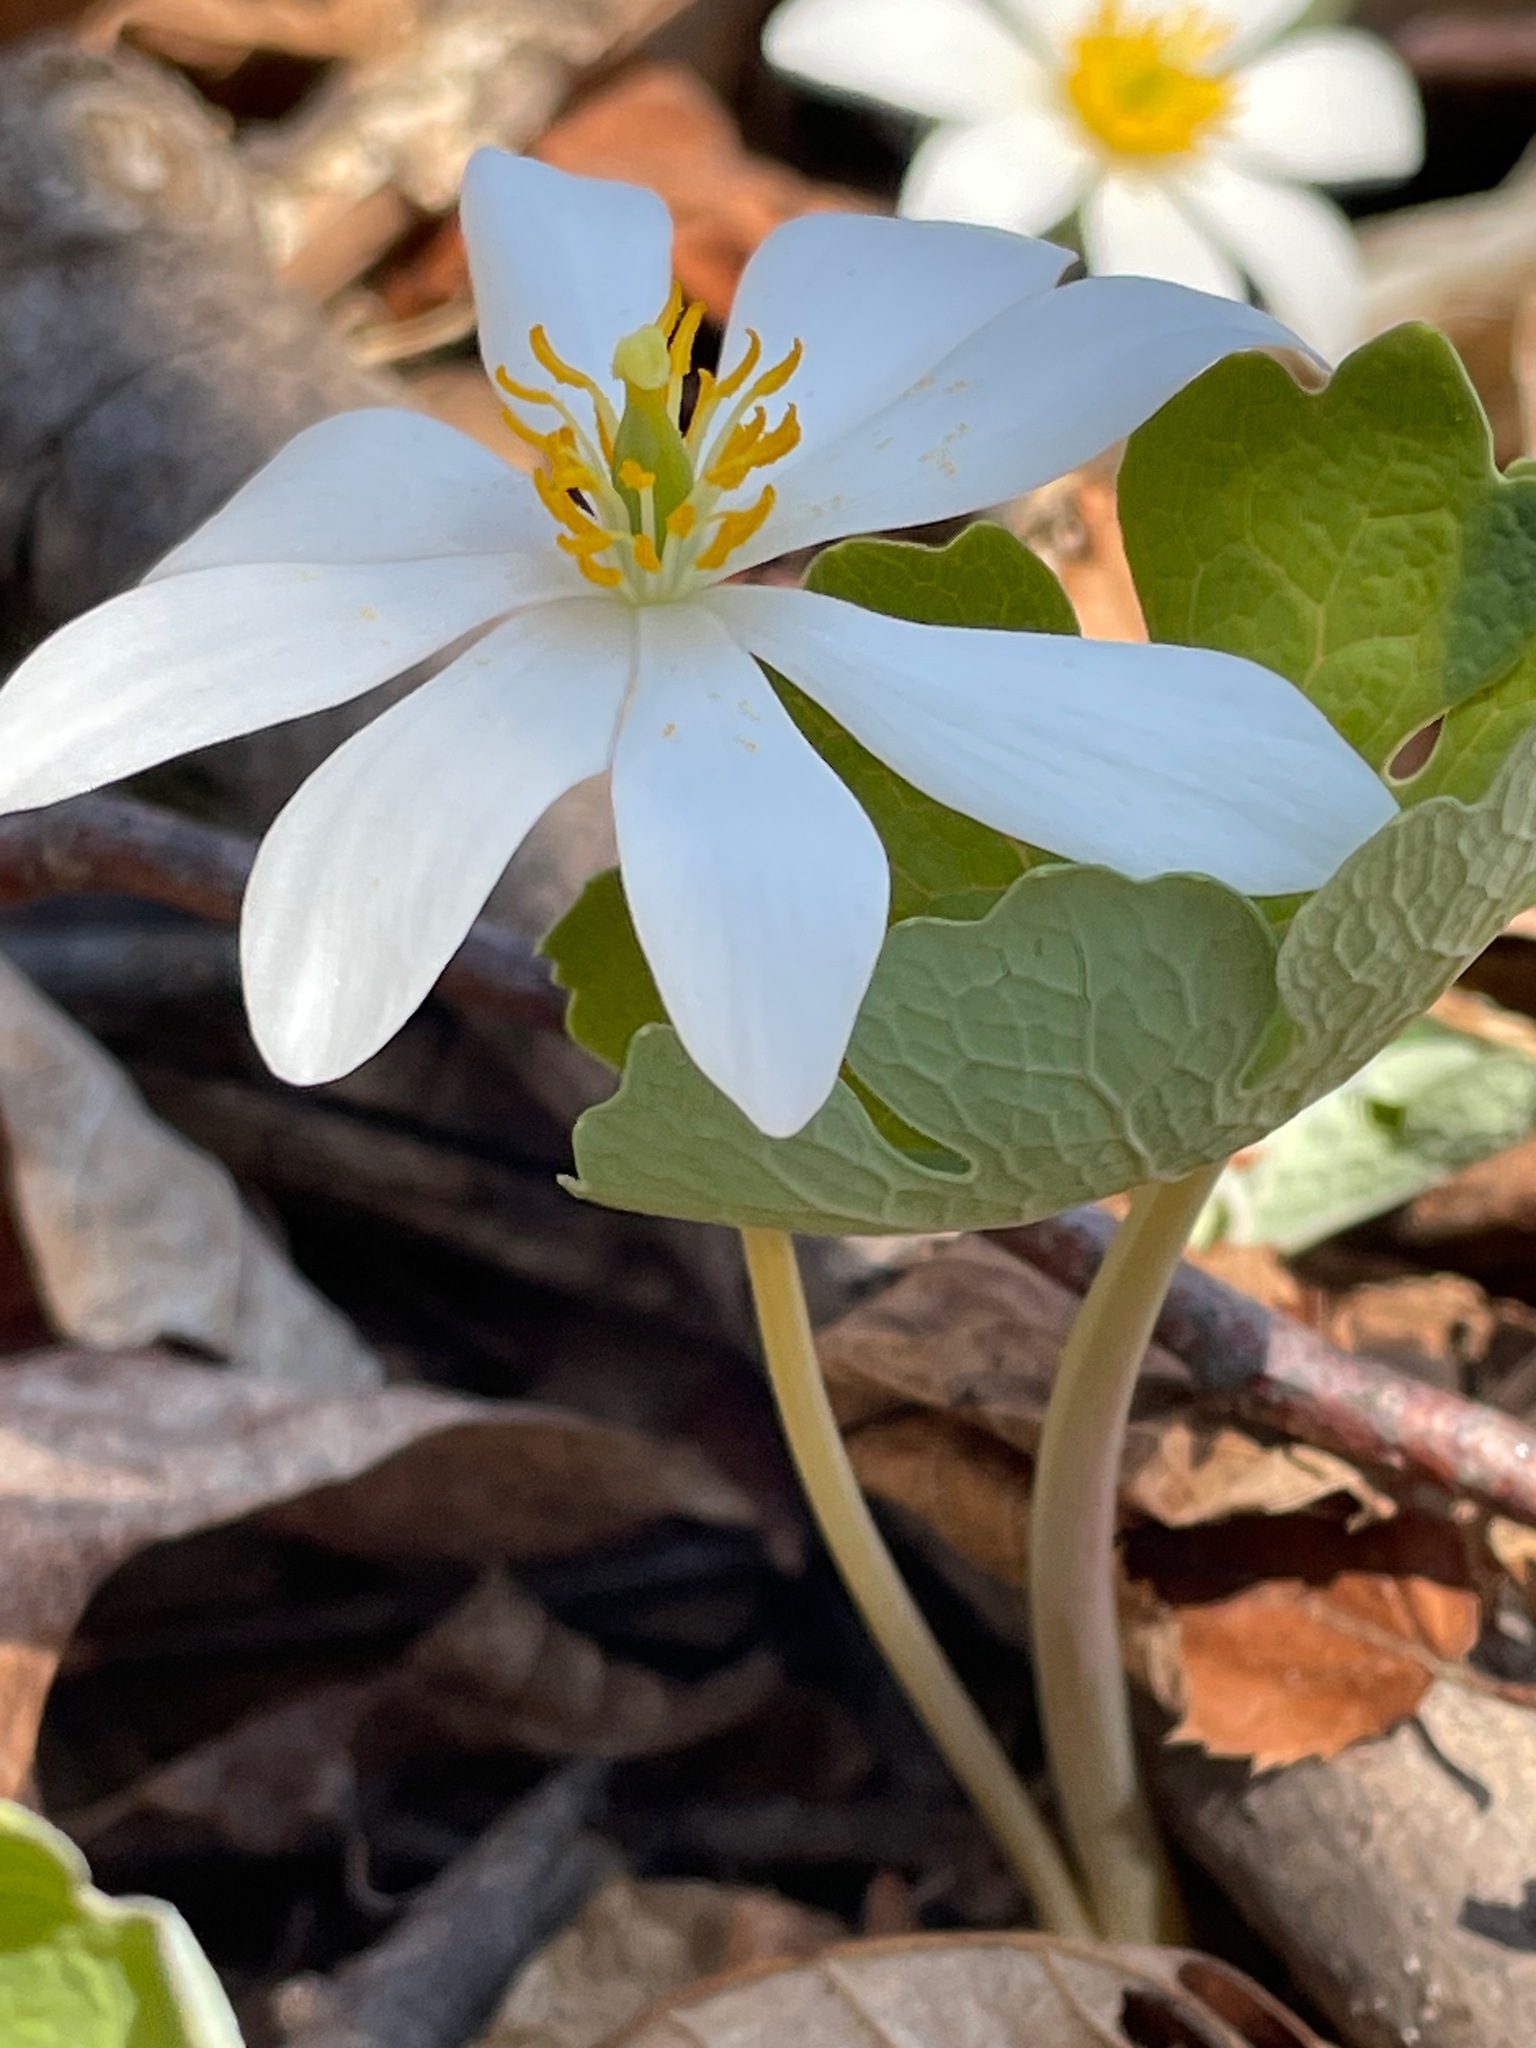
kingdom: Plantae
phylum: Tracheophyta
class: Magnoliopsida
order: Ranunculales
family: Papaveraceae
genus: Sanguinaria
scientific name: Sanguinaria canadensis
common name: Bloodroot
